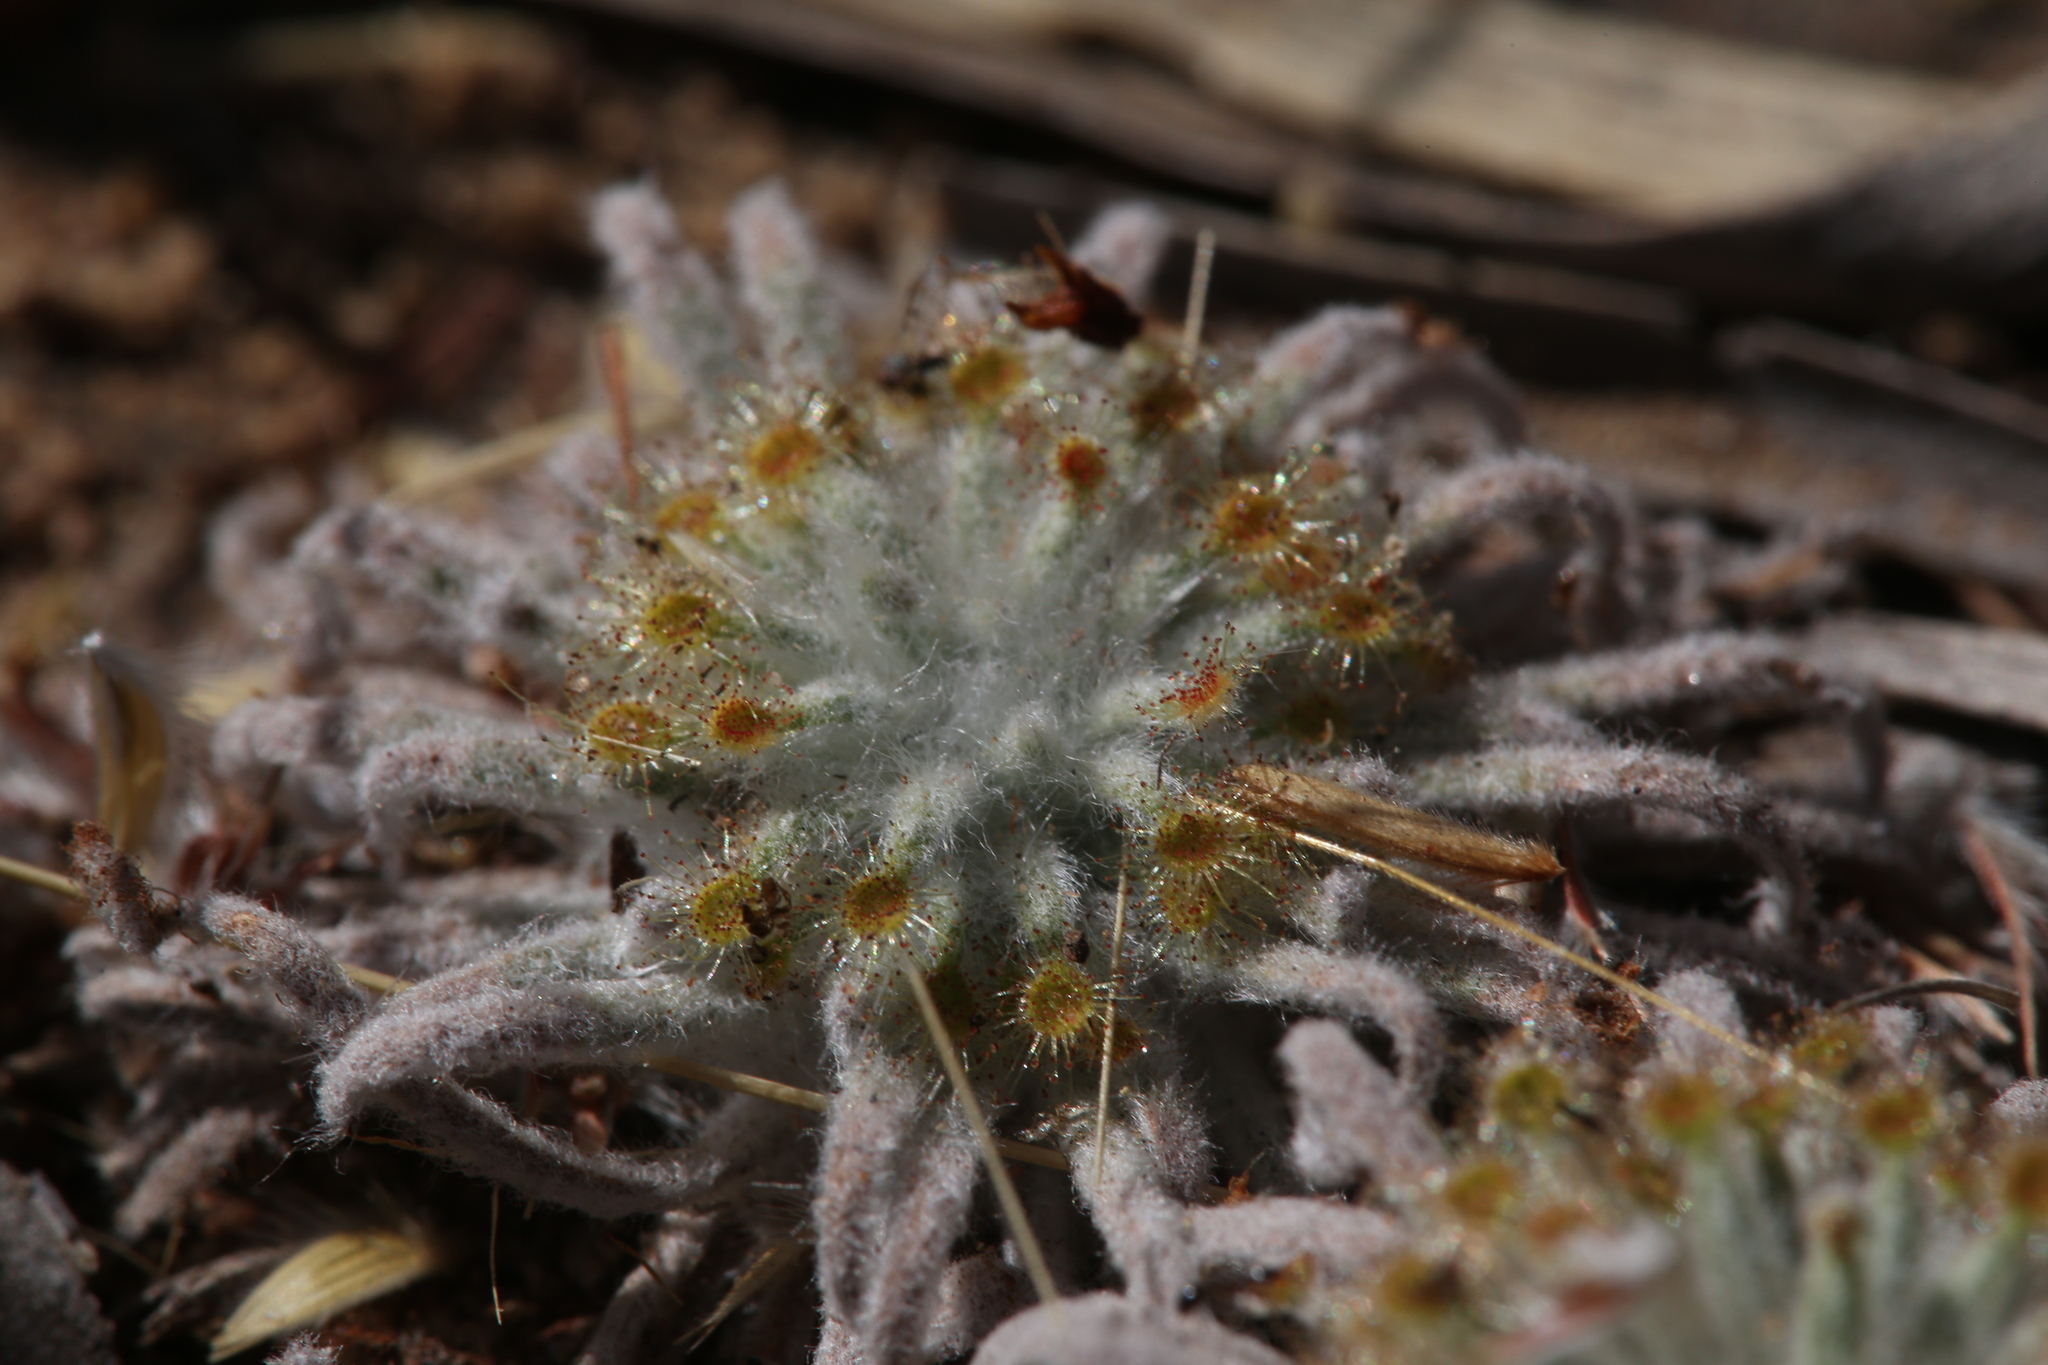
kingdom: Plantae
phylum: Tracheophyta
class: Magnoliopsida
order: Caryophyllales
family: Droseraceae
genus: Drosera
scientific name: Drosera derbyensis
